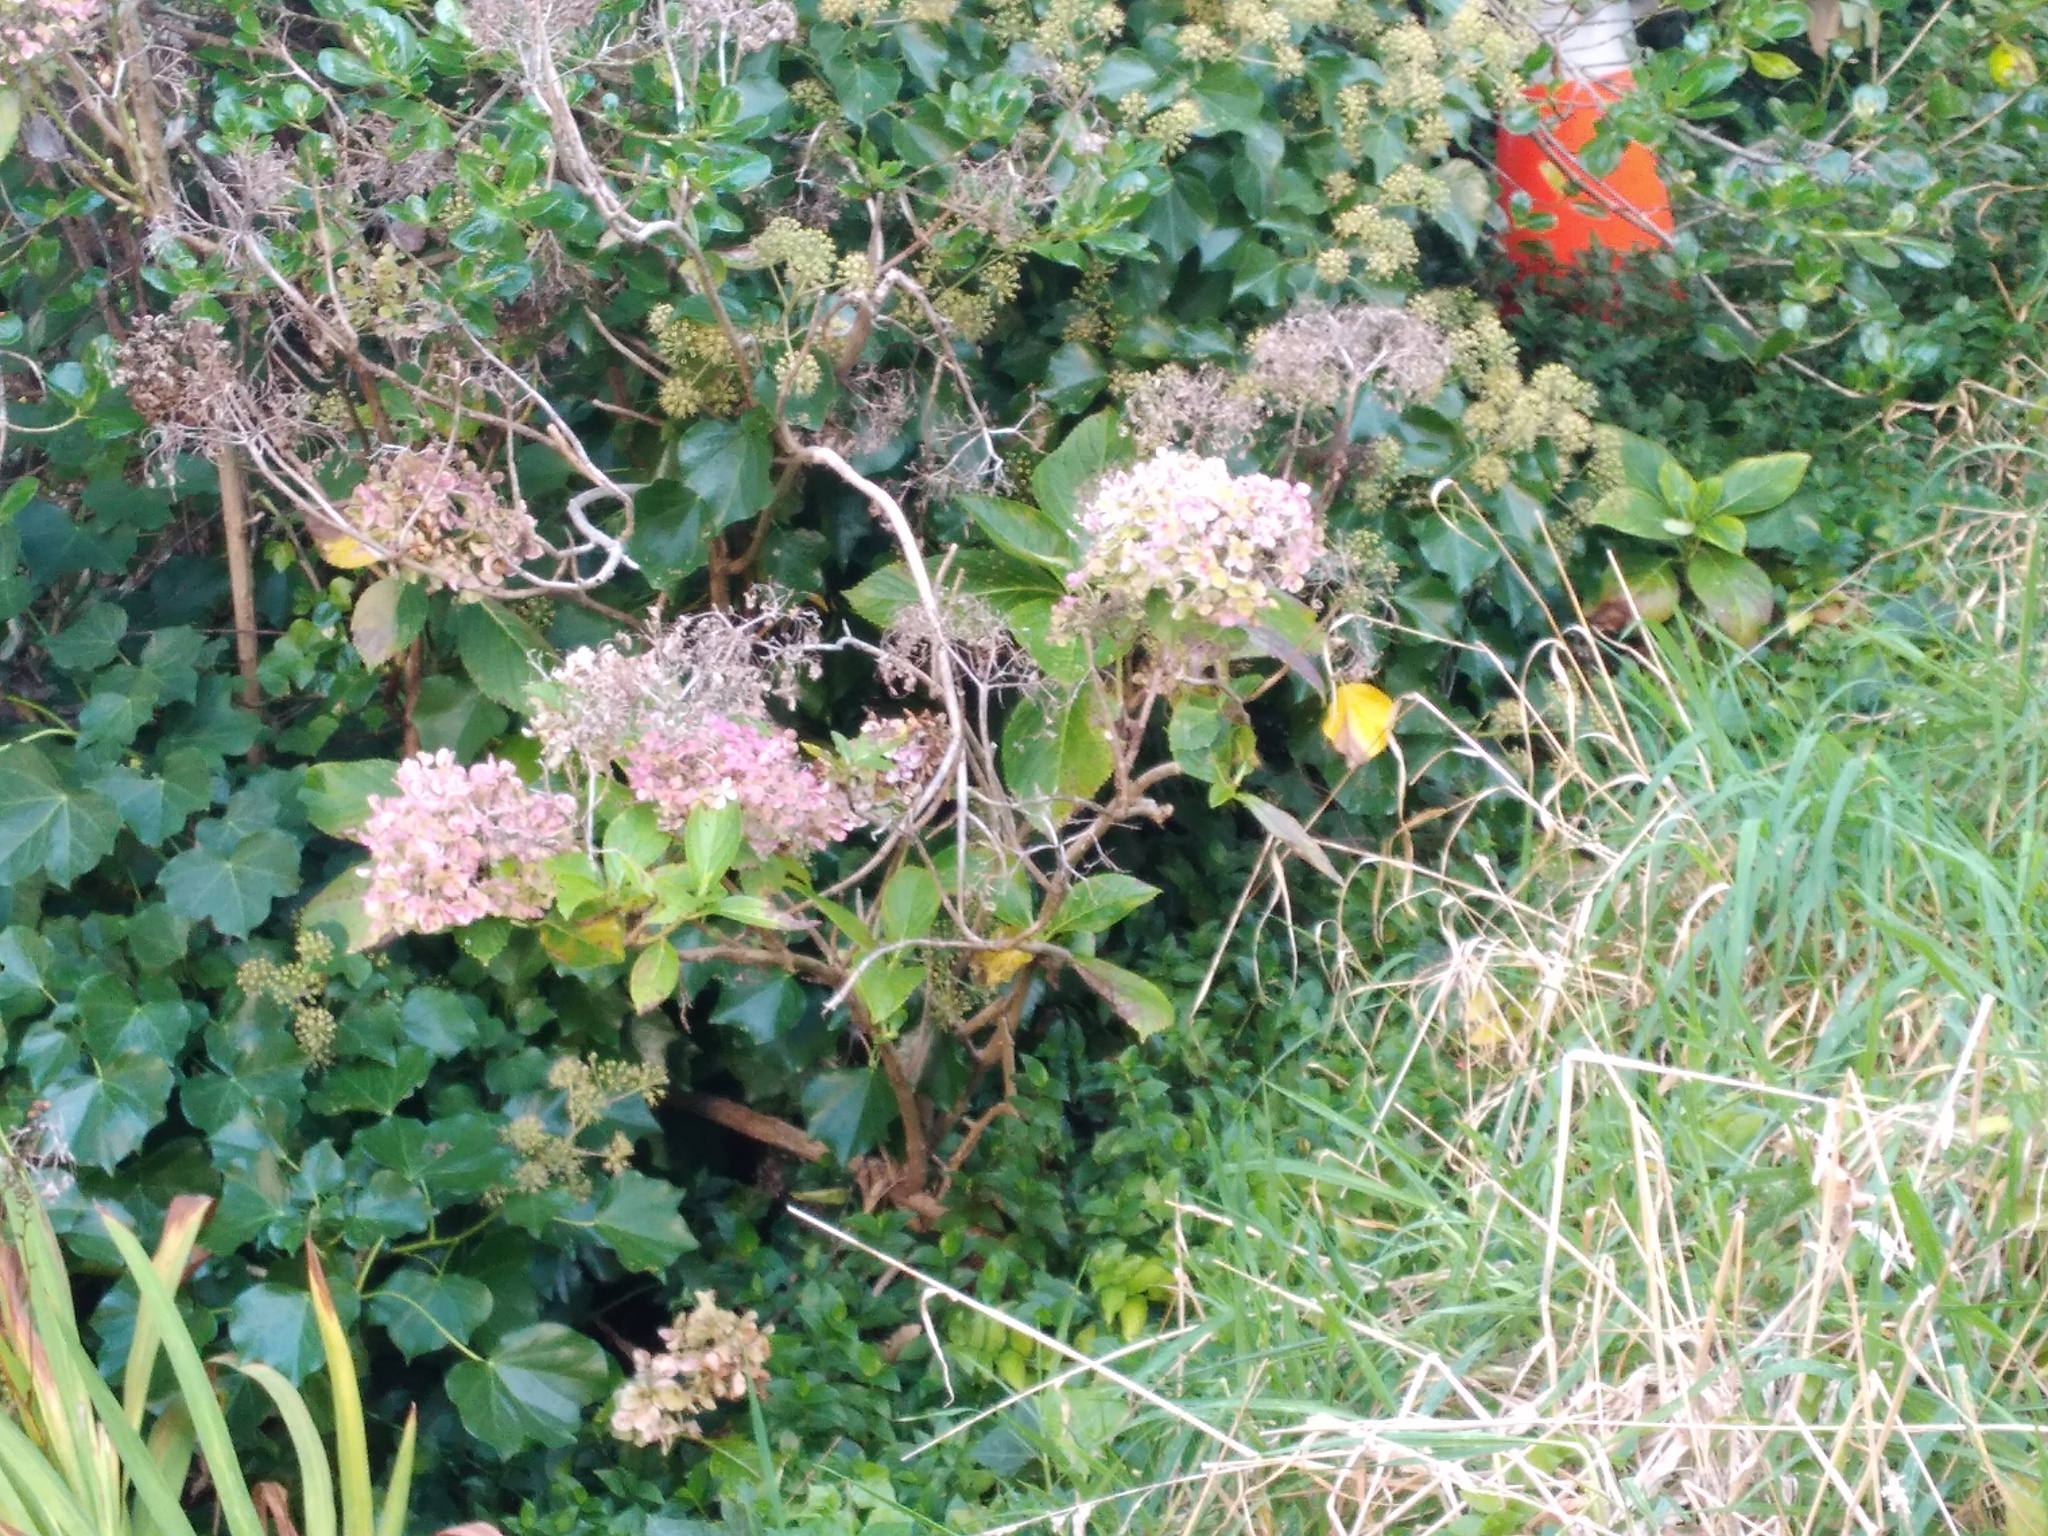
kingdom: Plantae
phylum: Tracheophyta
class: Magnoliopsida
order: Cornales
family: Hydrangeaceae
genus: Hydrangea
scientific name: Hydrangea macrophylla
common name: Hydrangea
